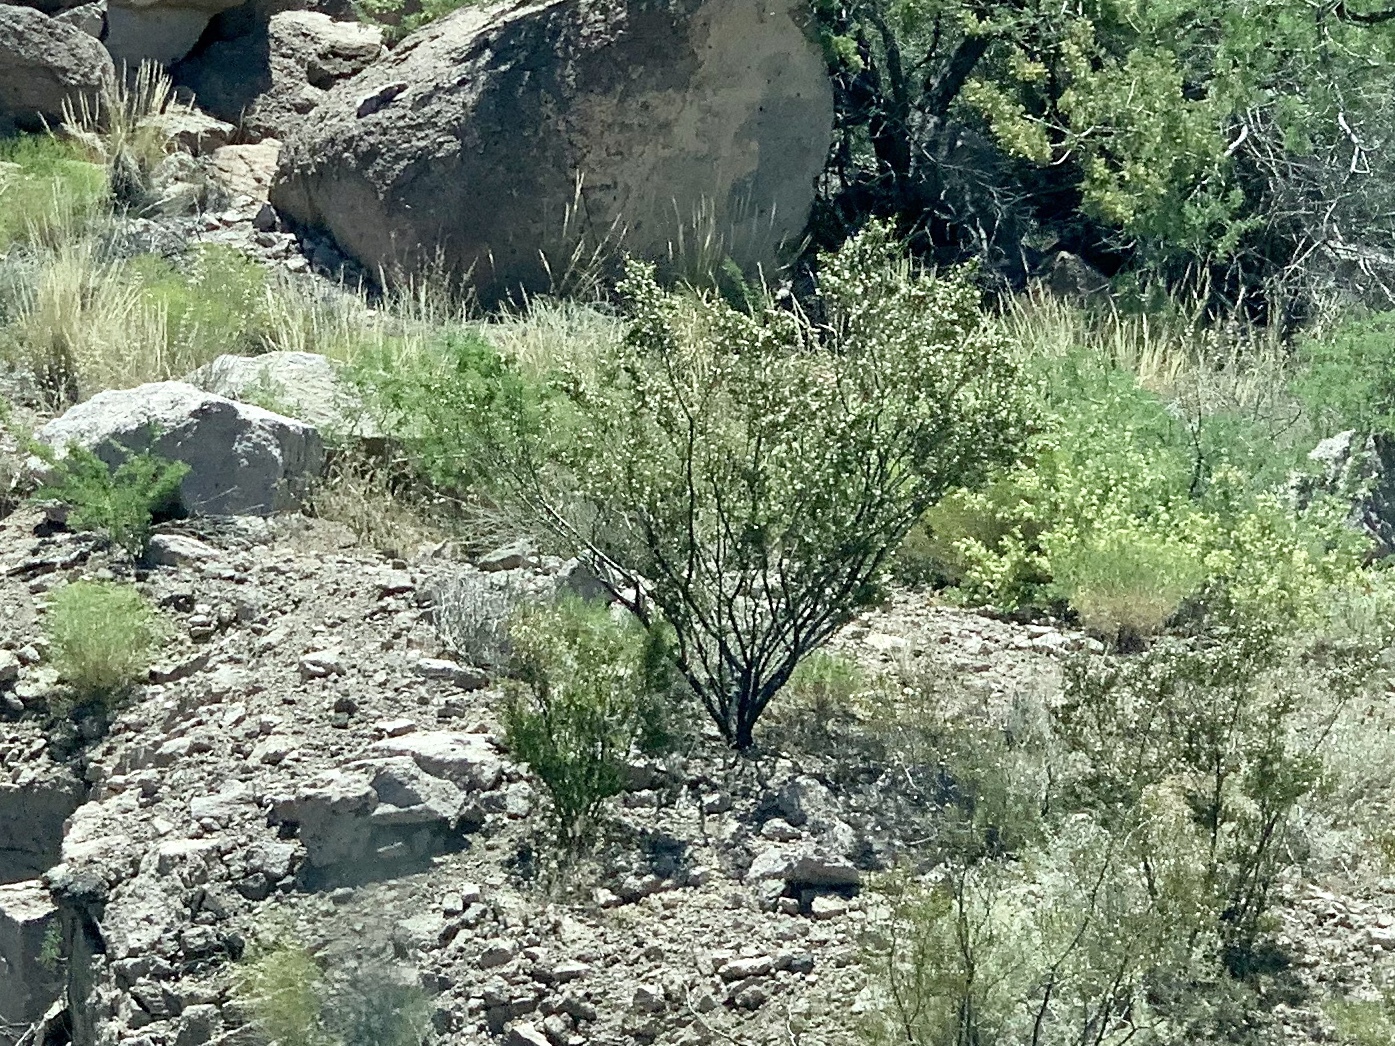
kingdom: Plantae
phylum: Tracheophyta
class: Magnoliopsida
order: Zygophyllales
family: Zygophyllaceae
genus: Larrea
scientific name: Larrea tridentata
